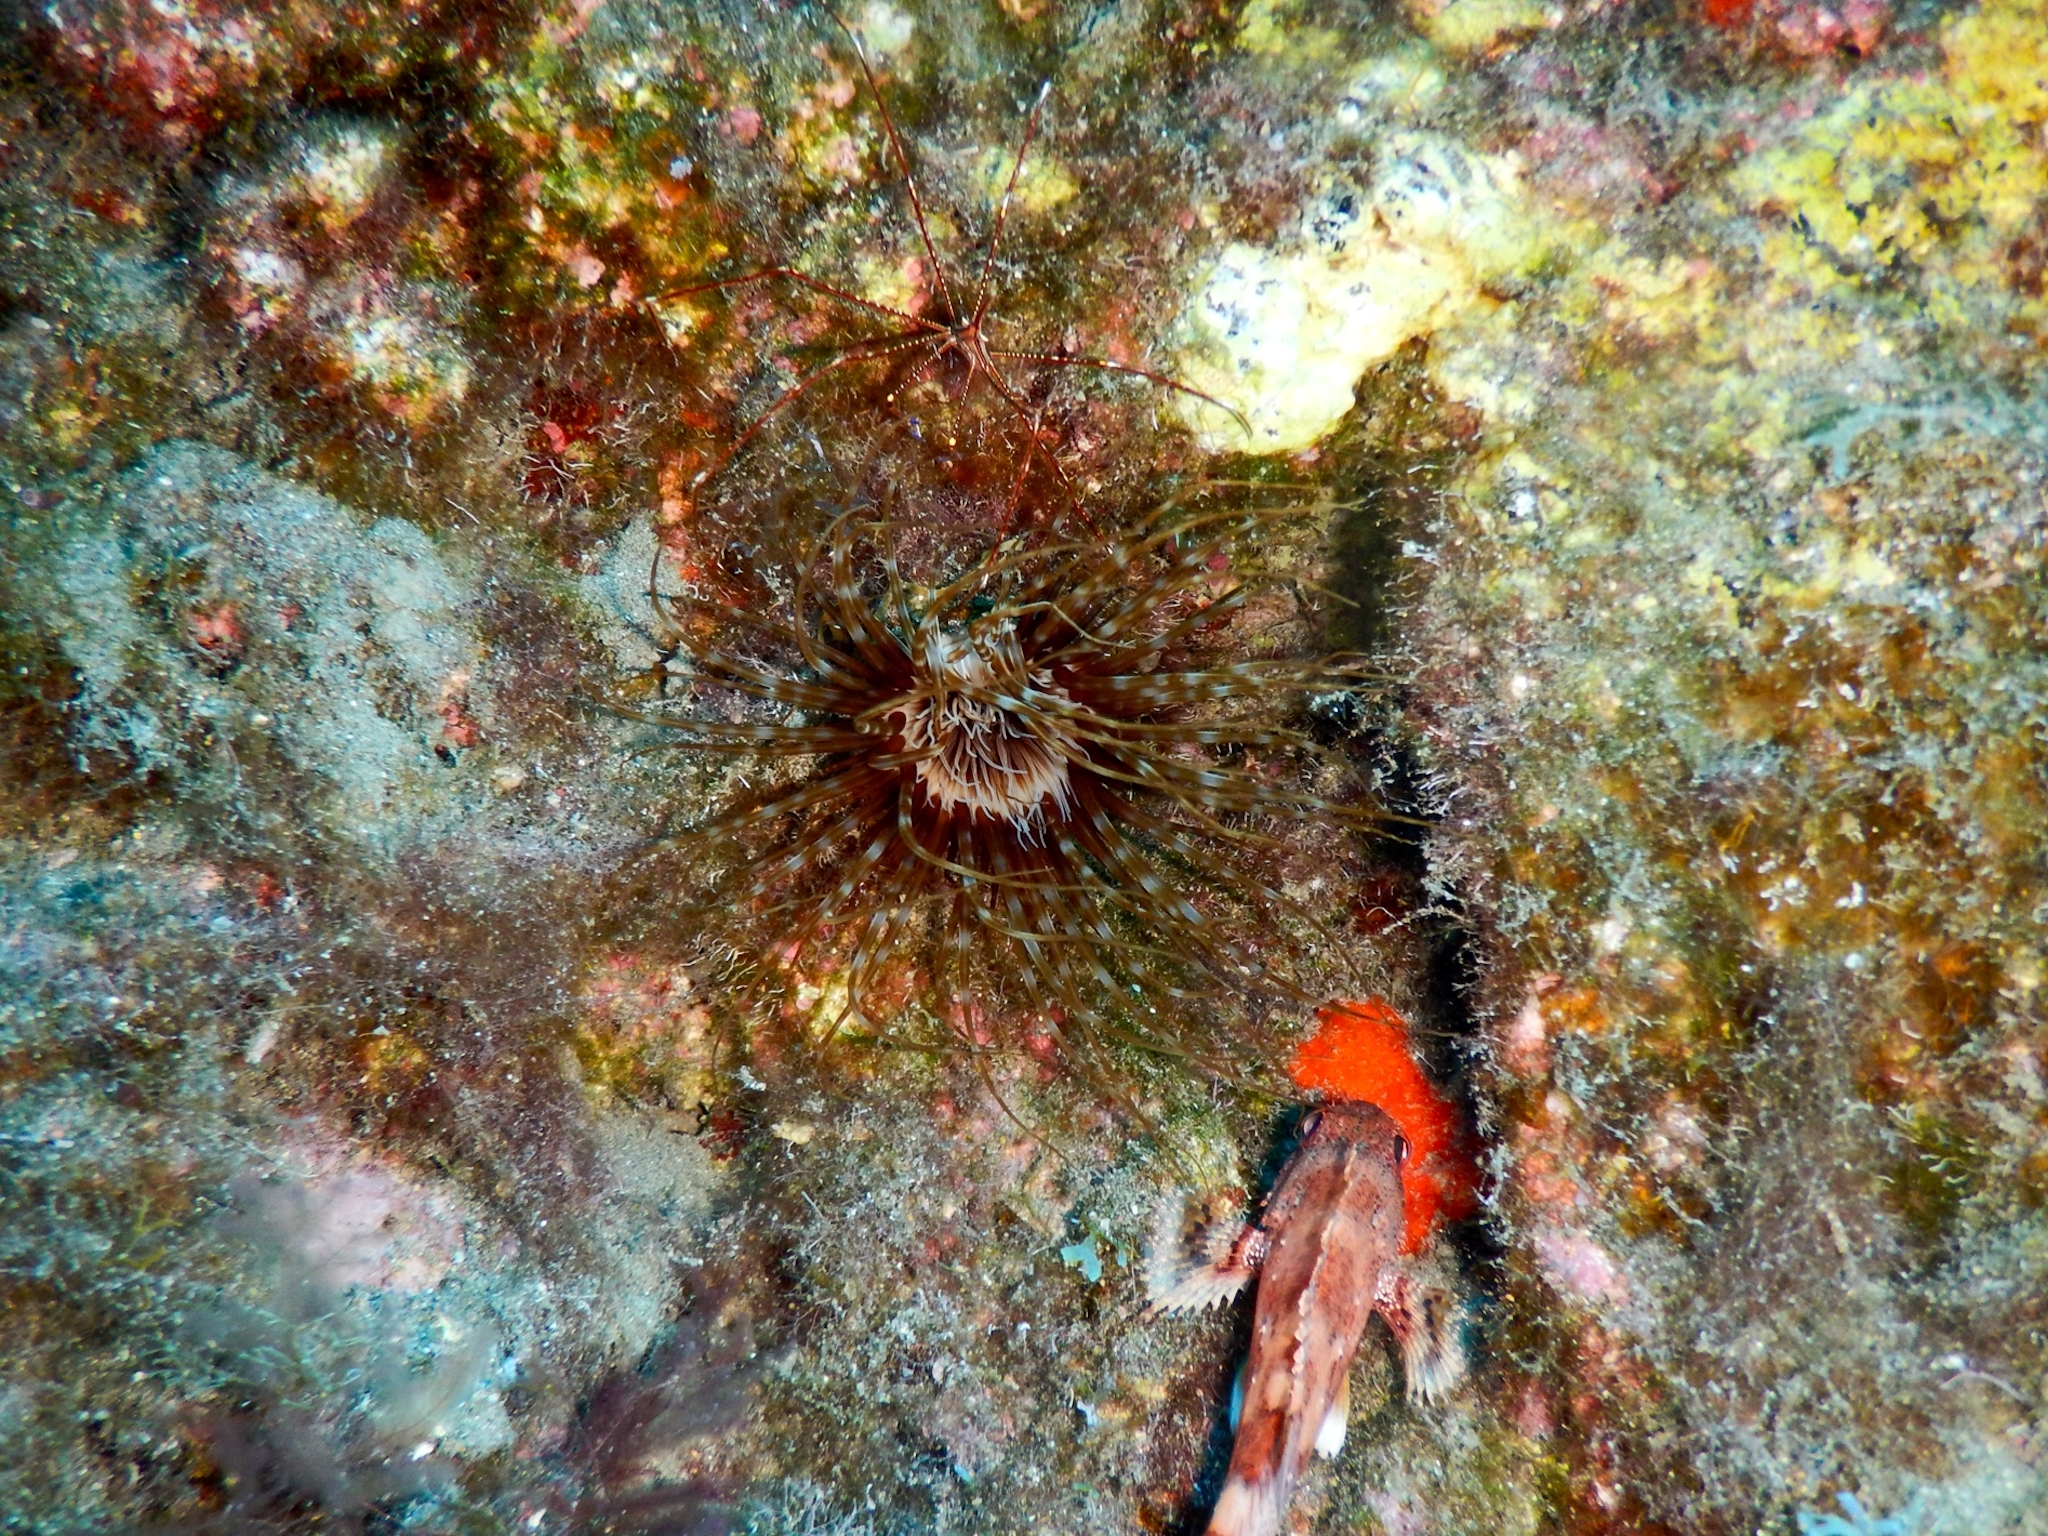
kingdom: Animalia
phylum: Chordata
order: Scorpaeniformes
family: Scorpaenidae
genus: Scorpaena
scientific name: Scorpaena maderensis
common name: Madeira rockfish
